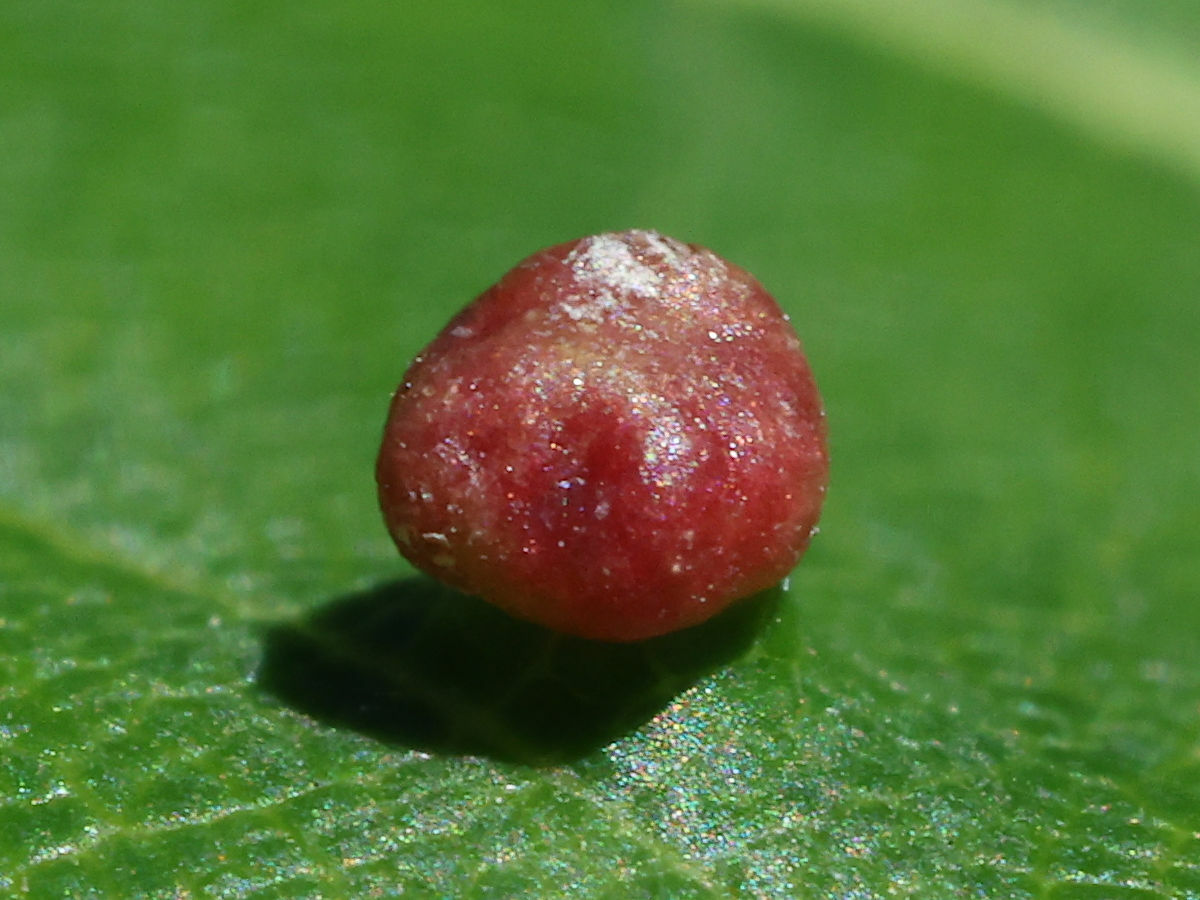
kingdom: Animalia
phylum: Arthropoda
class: Arachnida
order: Trombidiformes
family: Eriophyidae
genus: Vasates
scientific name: Vasates quadripedes
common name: Maple bladder gall mite
